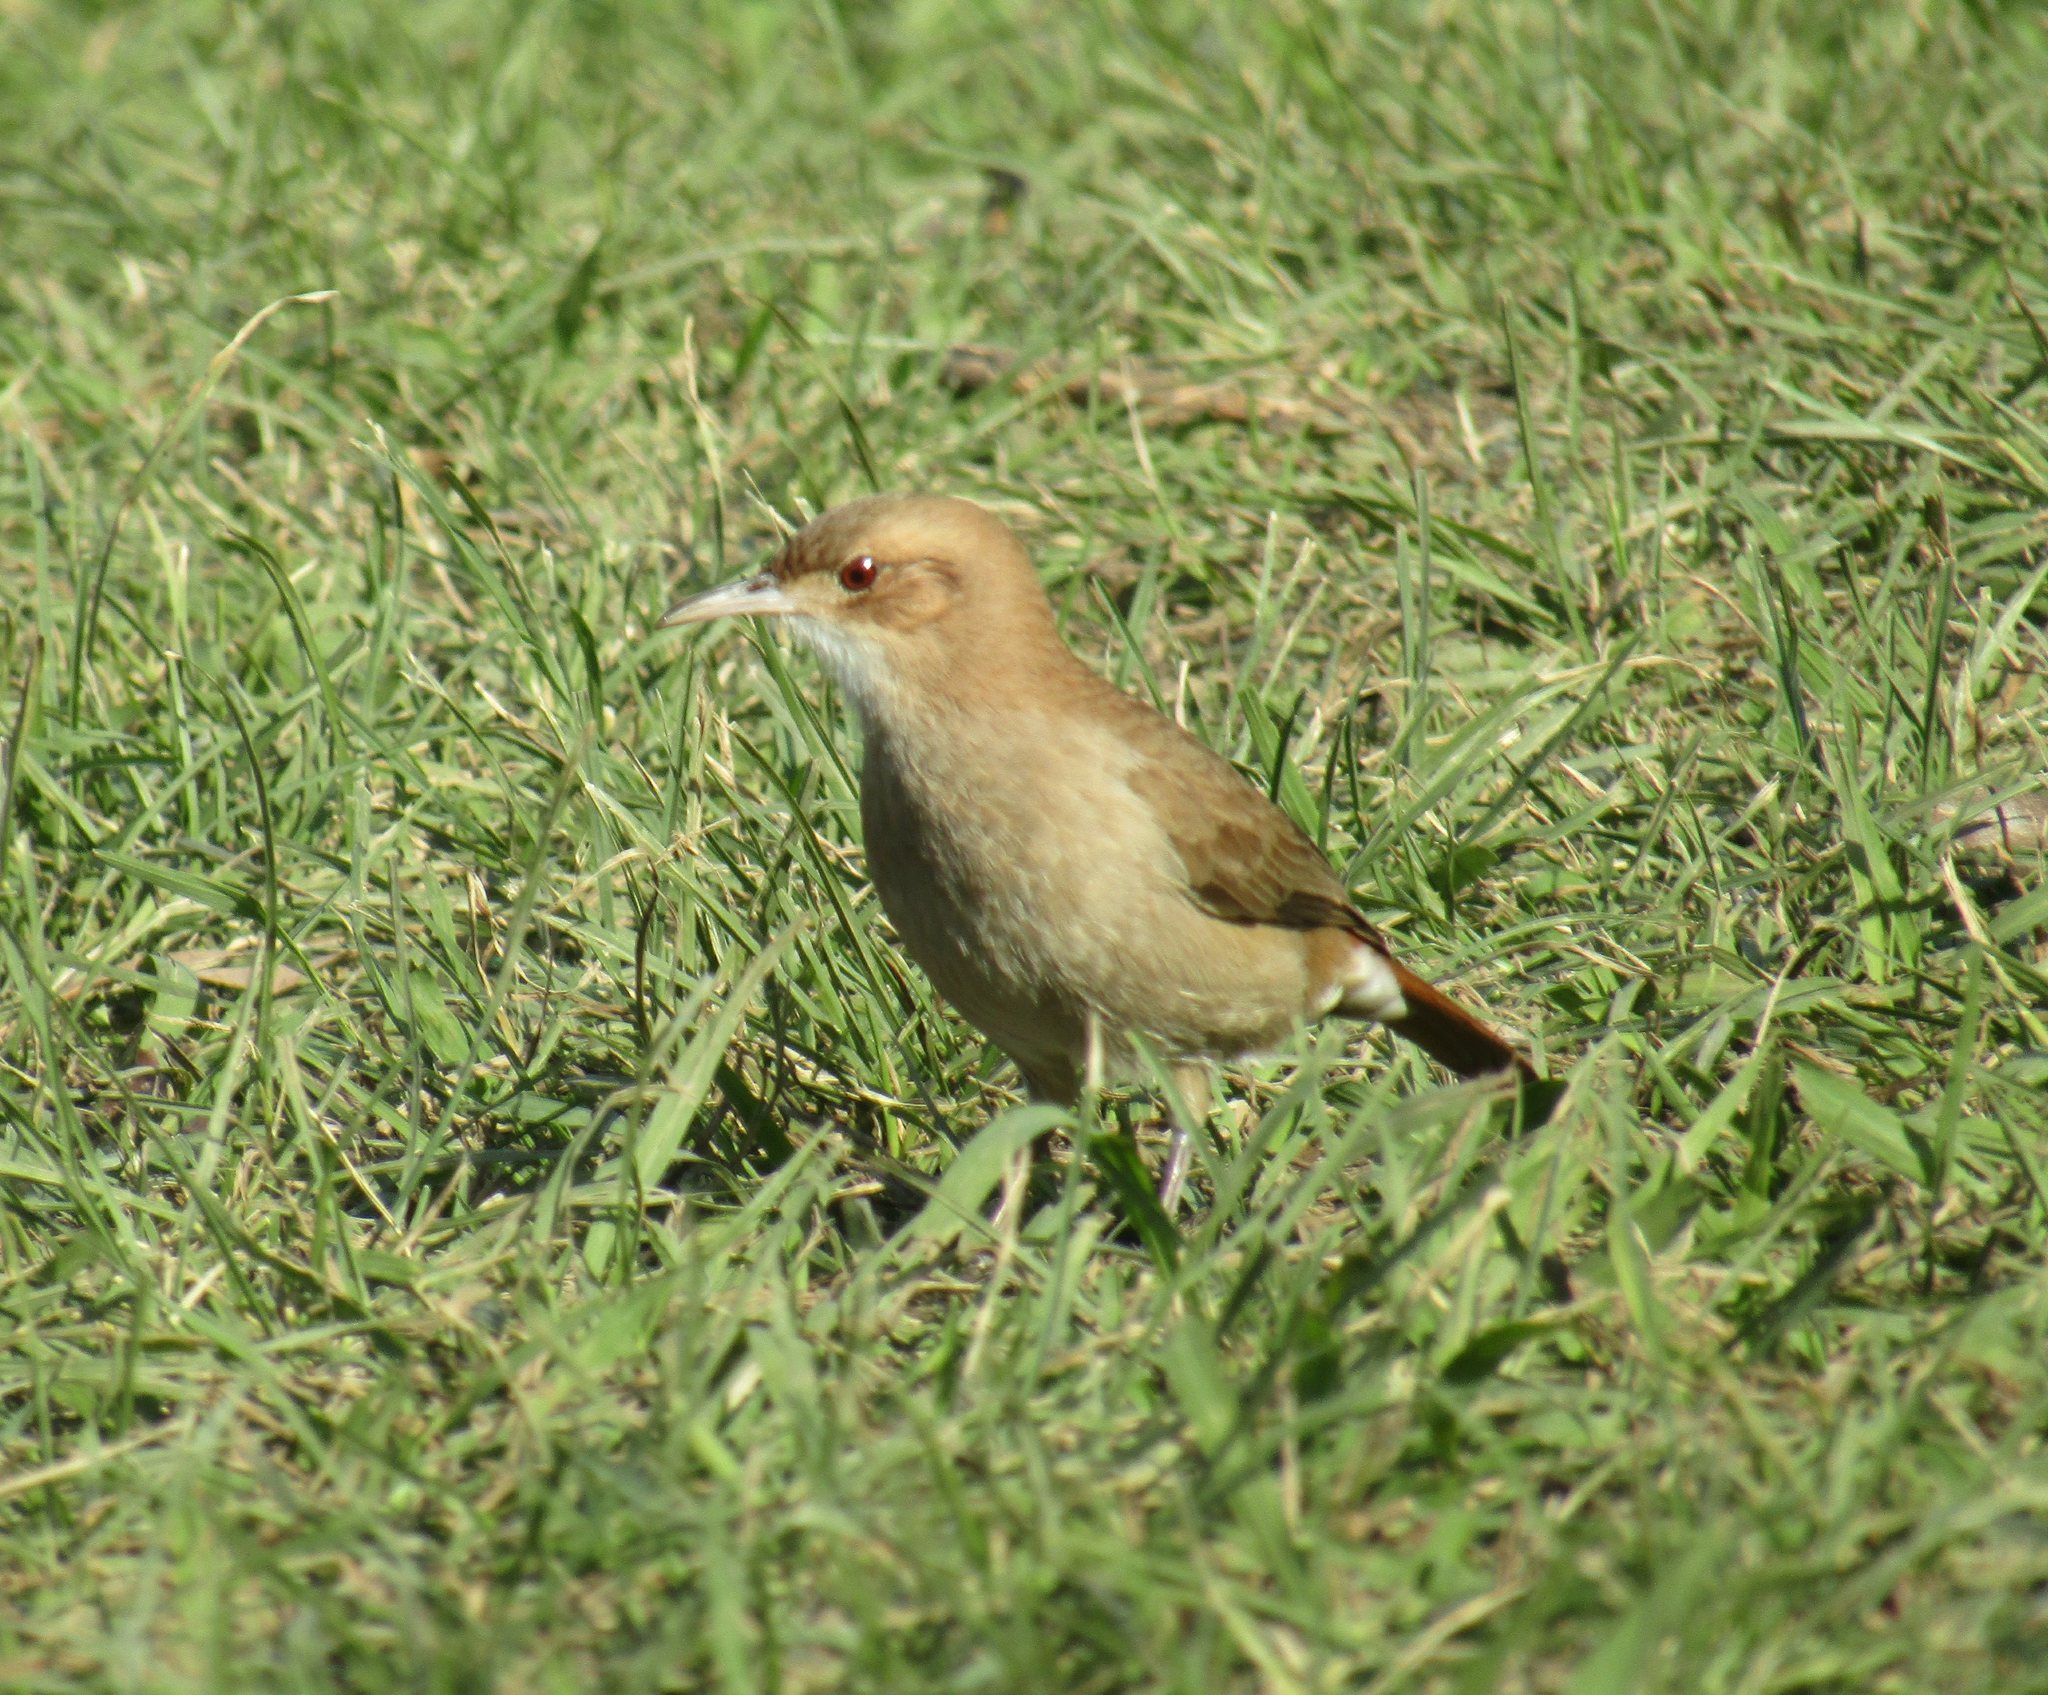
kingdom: Animalia
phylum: Chordata
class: Aves
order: Passeriformes
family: Furnariidae
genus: Furnarius
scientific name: Furnarius rufus
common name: Rufous hornero
